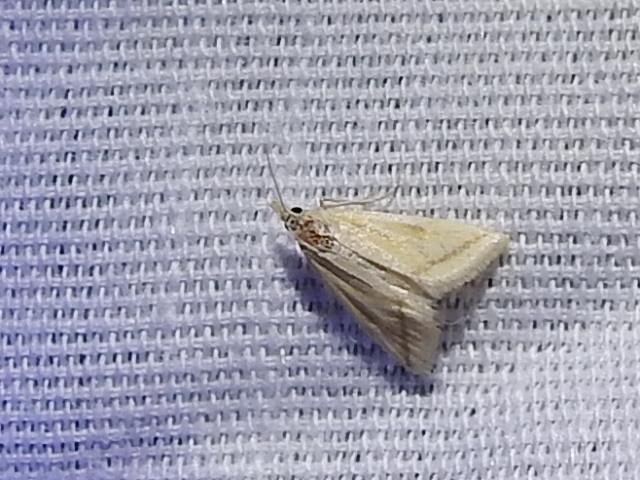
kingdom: Animalia
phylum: Arthropoda
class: Insecta
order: Lepidoptera
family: Crambidae
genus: Microtheoris
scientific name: Microtheoris vibicalis
